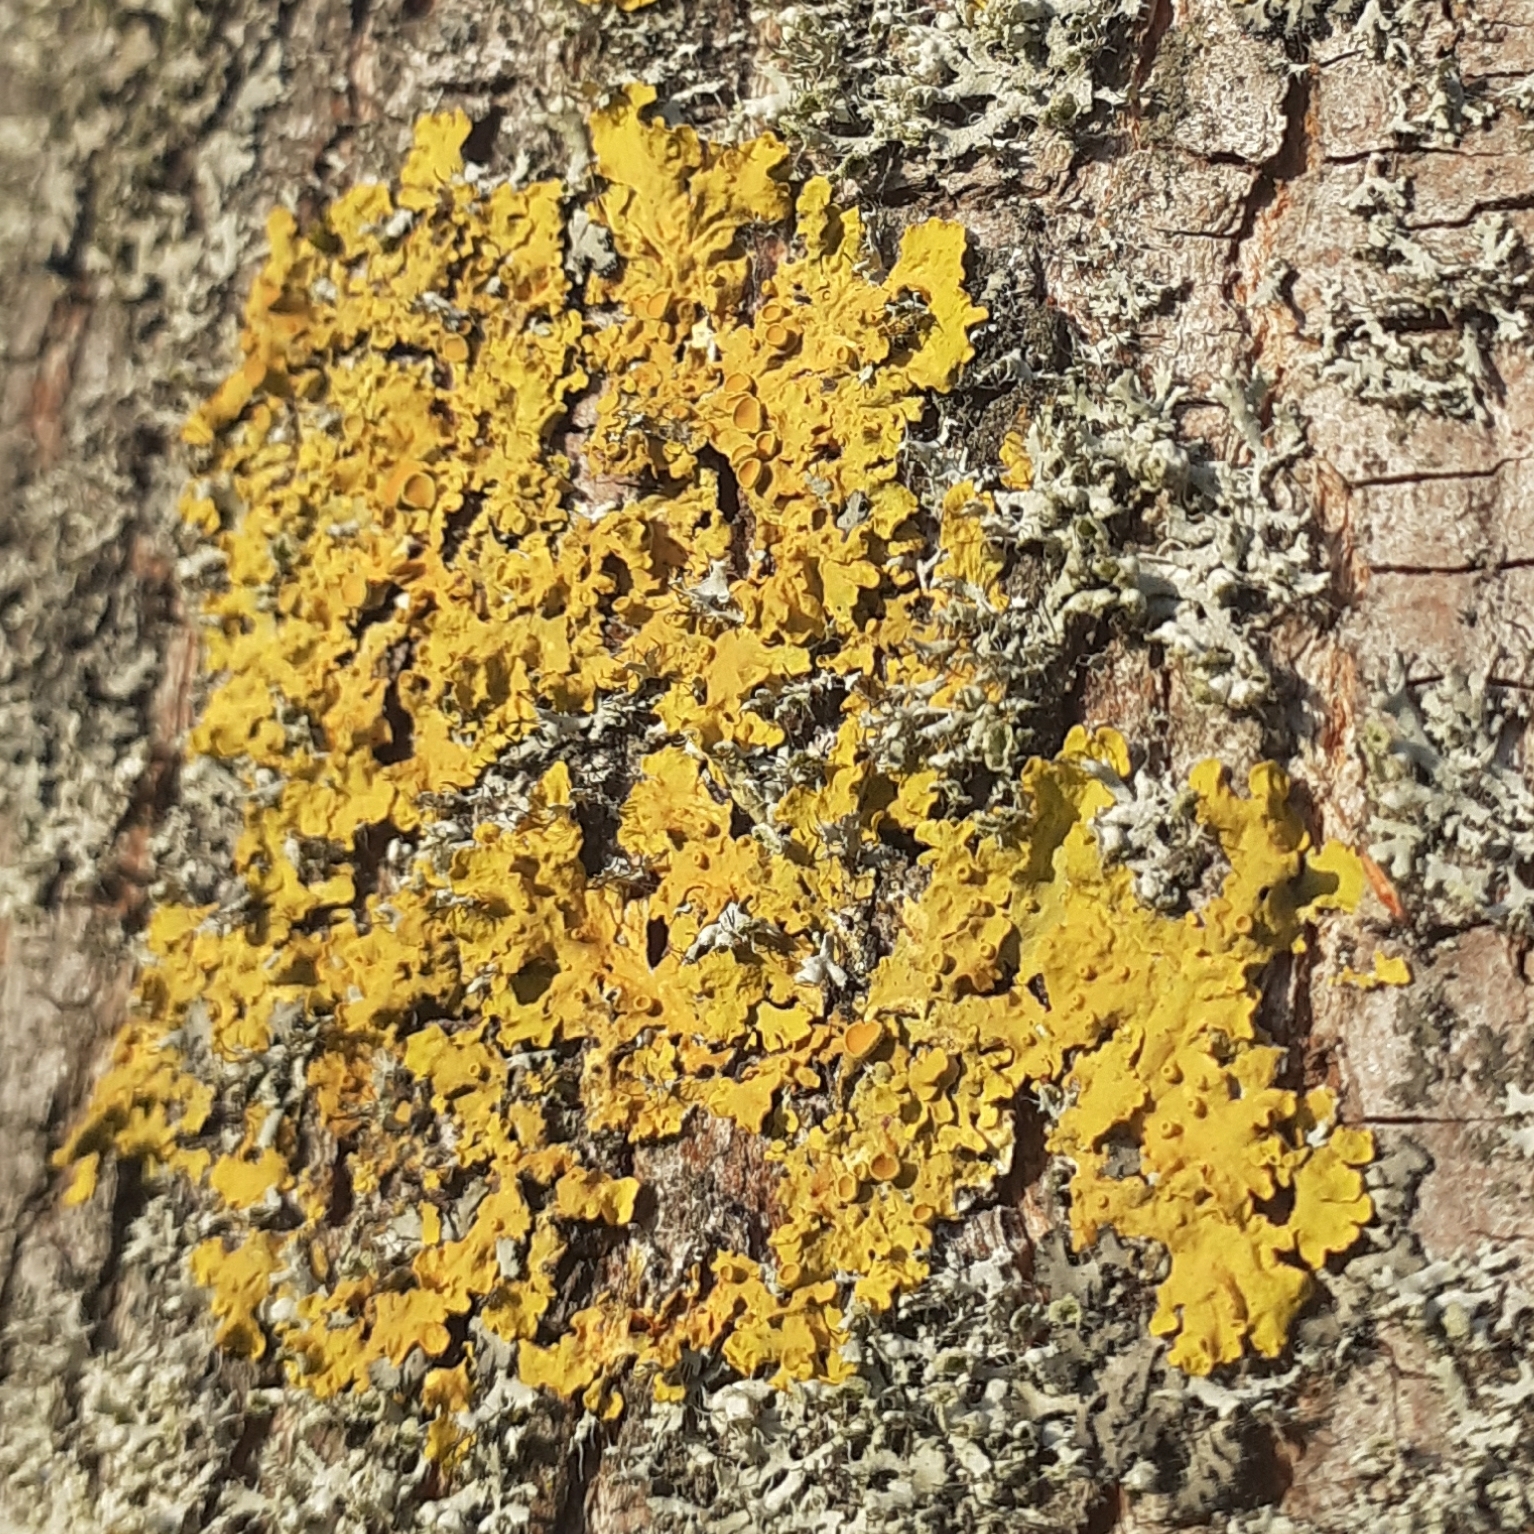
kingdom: Fungi
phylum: Ascomycota
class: Lecanoromycetes
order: Teloschistales
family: Teloschistaceae
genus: Xanthoria
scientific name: Xanthoria parietina
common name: Common orange lichen
